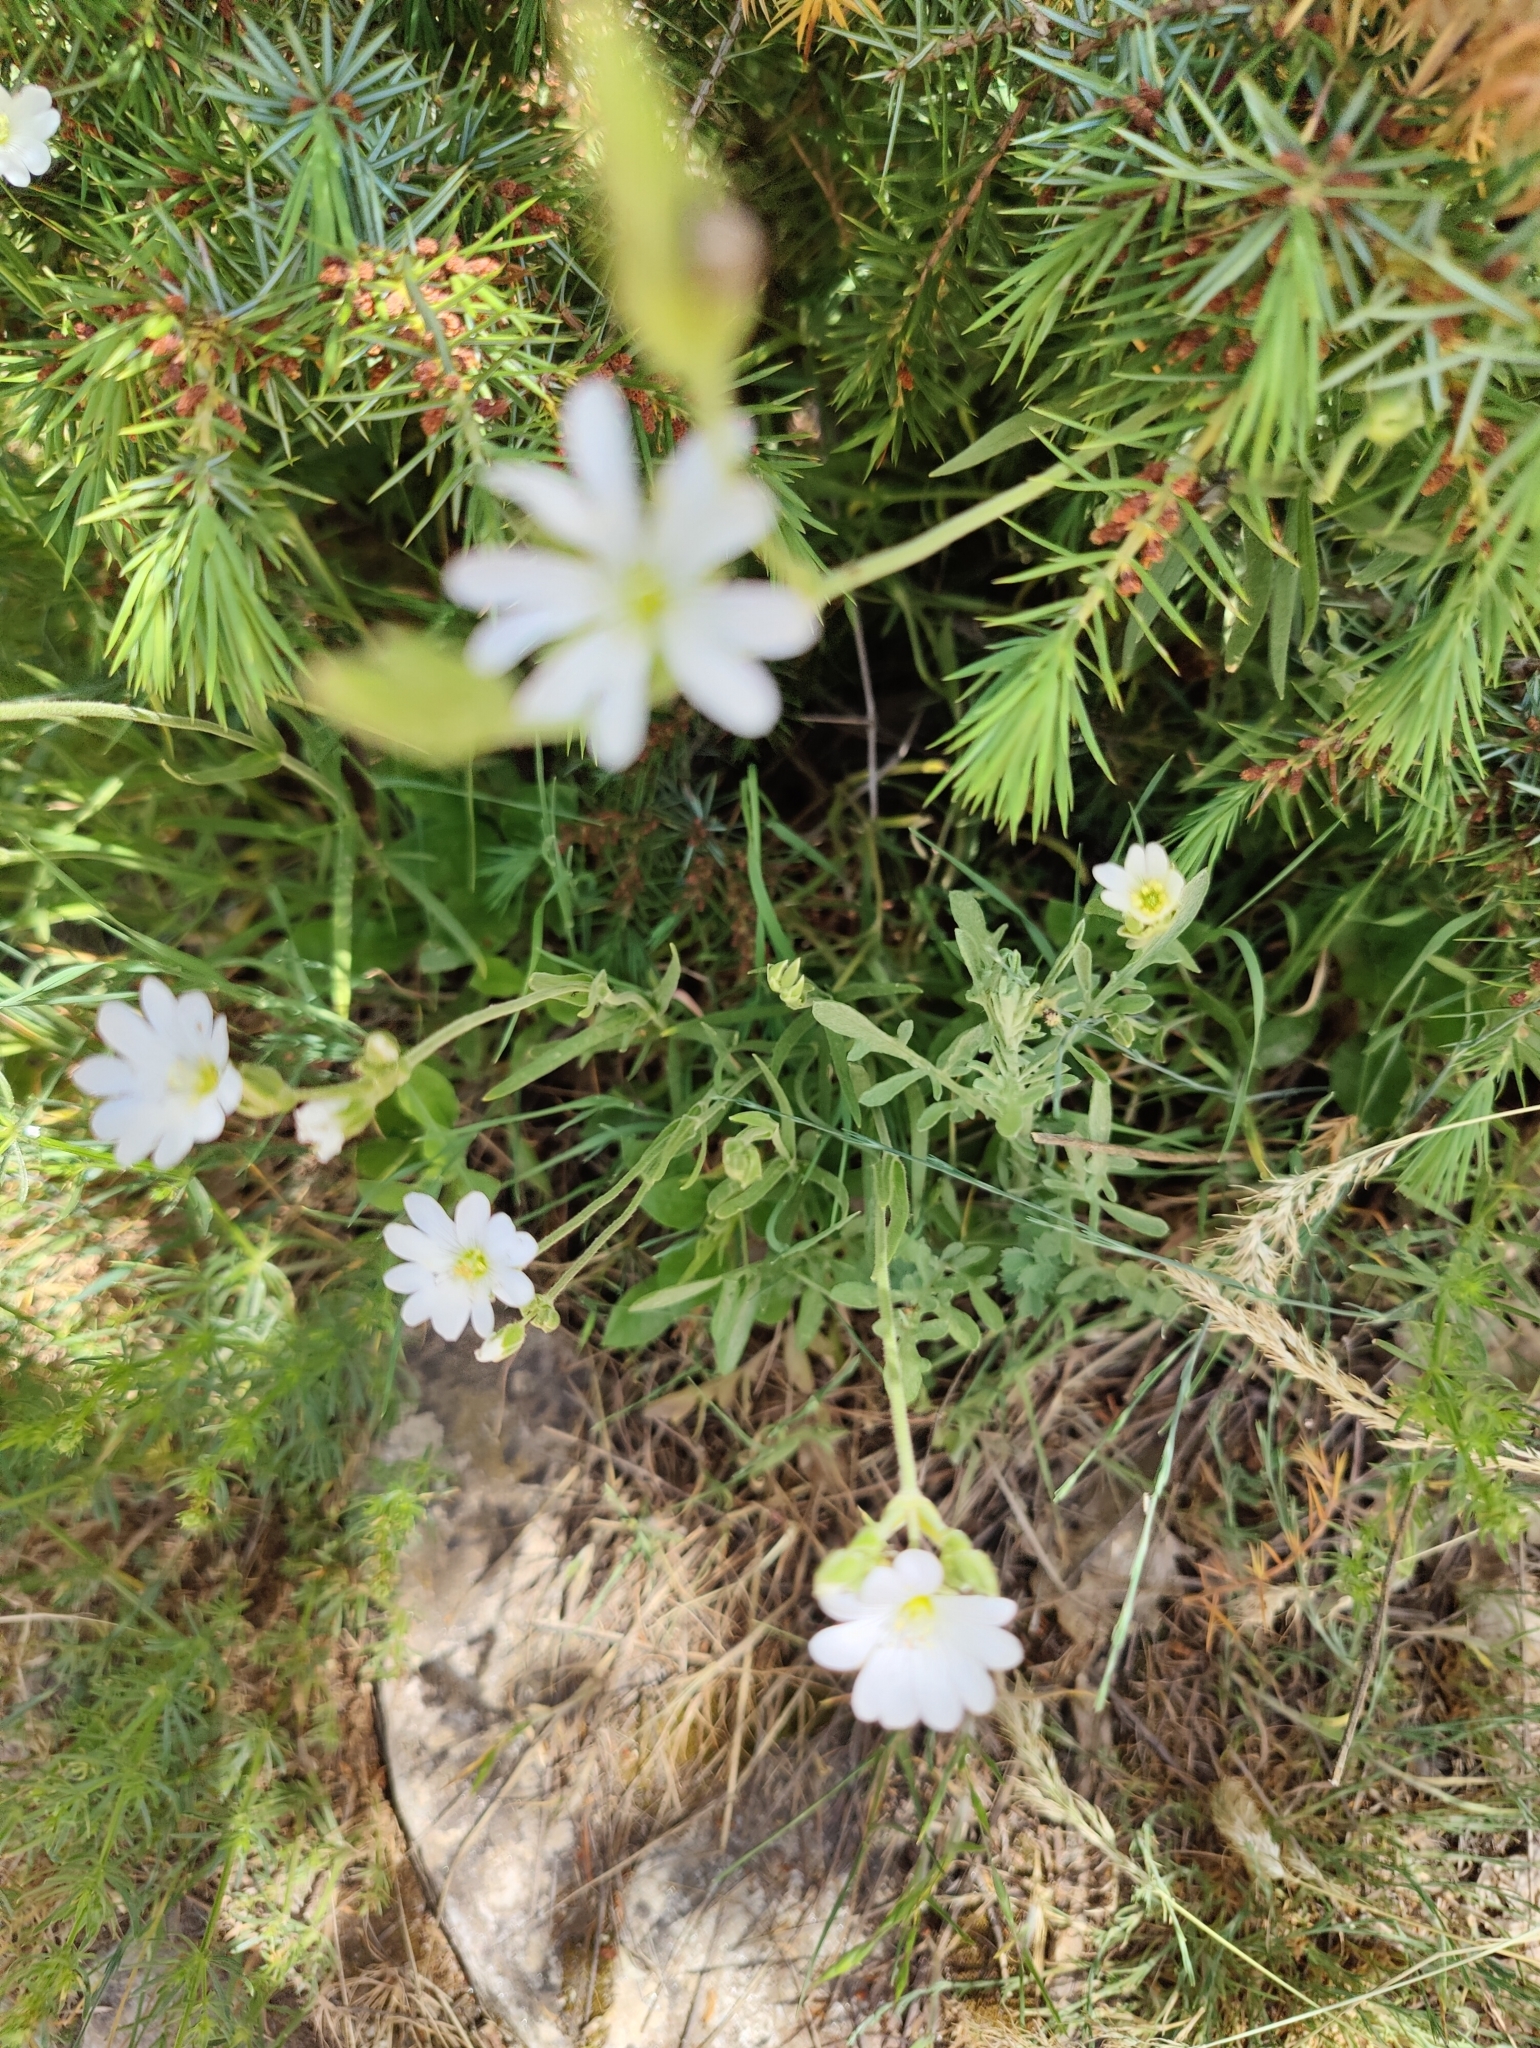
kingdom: Plantae
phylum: Tracheophyta
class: Magnoliopsida
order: Caryophyllales
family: Caryophyllaceae
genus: Rabelera
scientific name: Rabelera holostea
